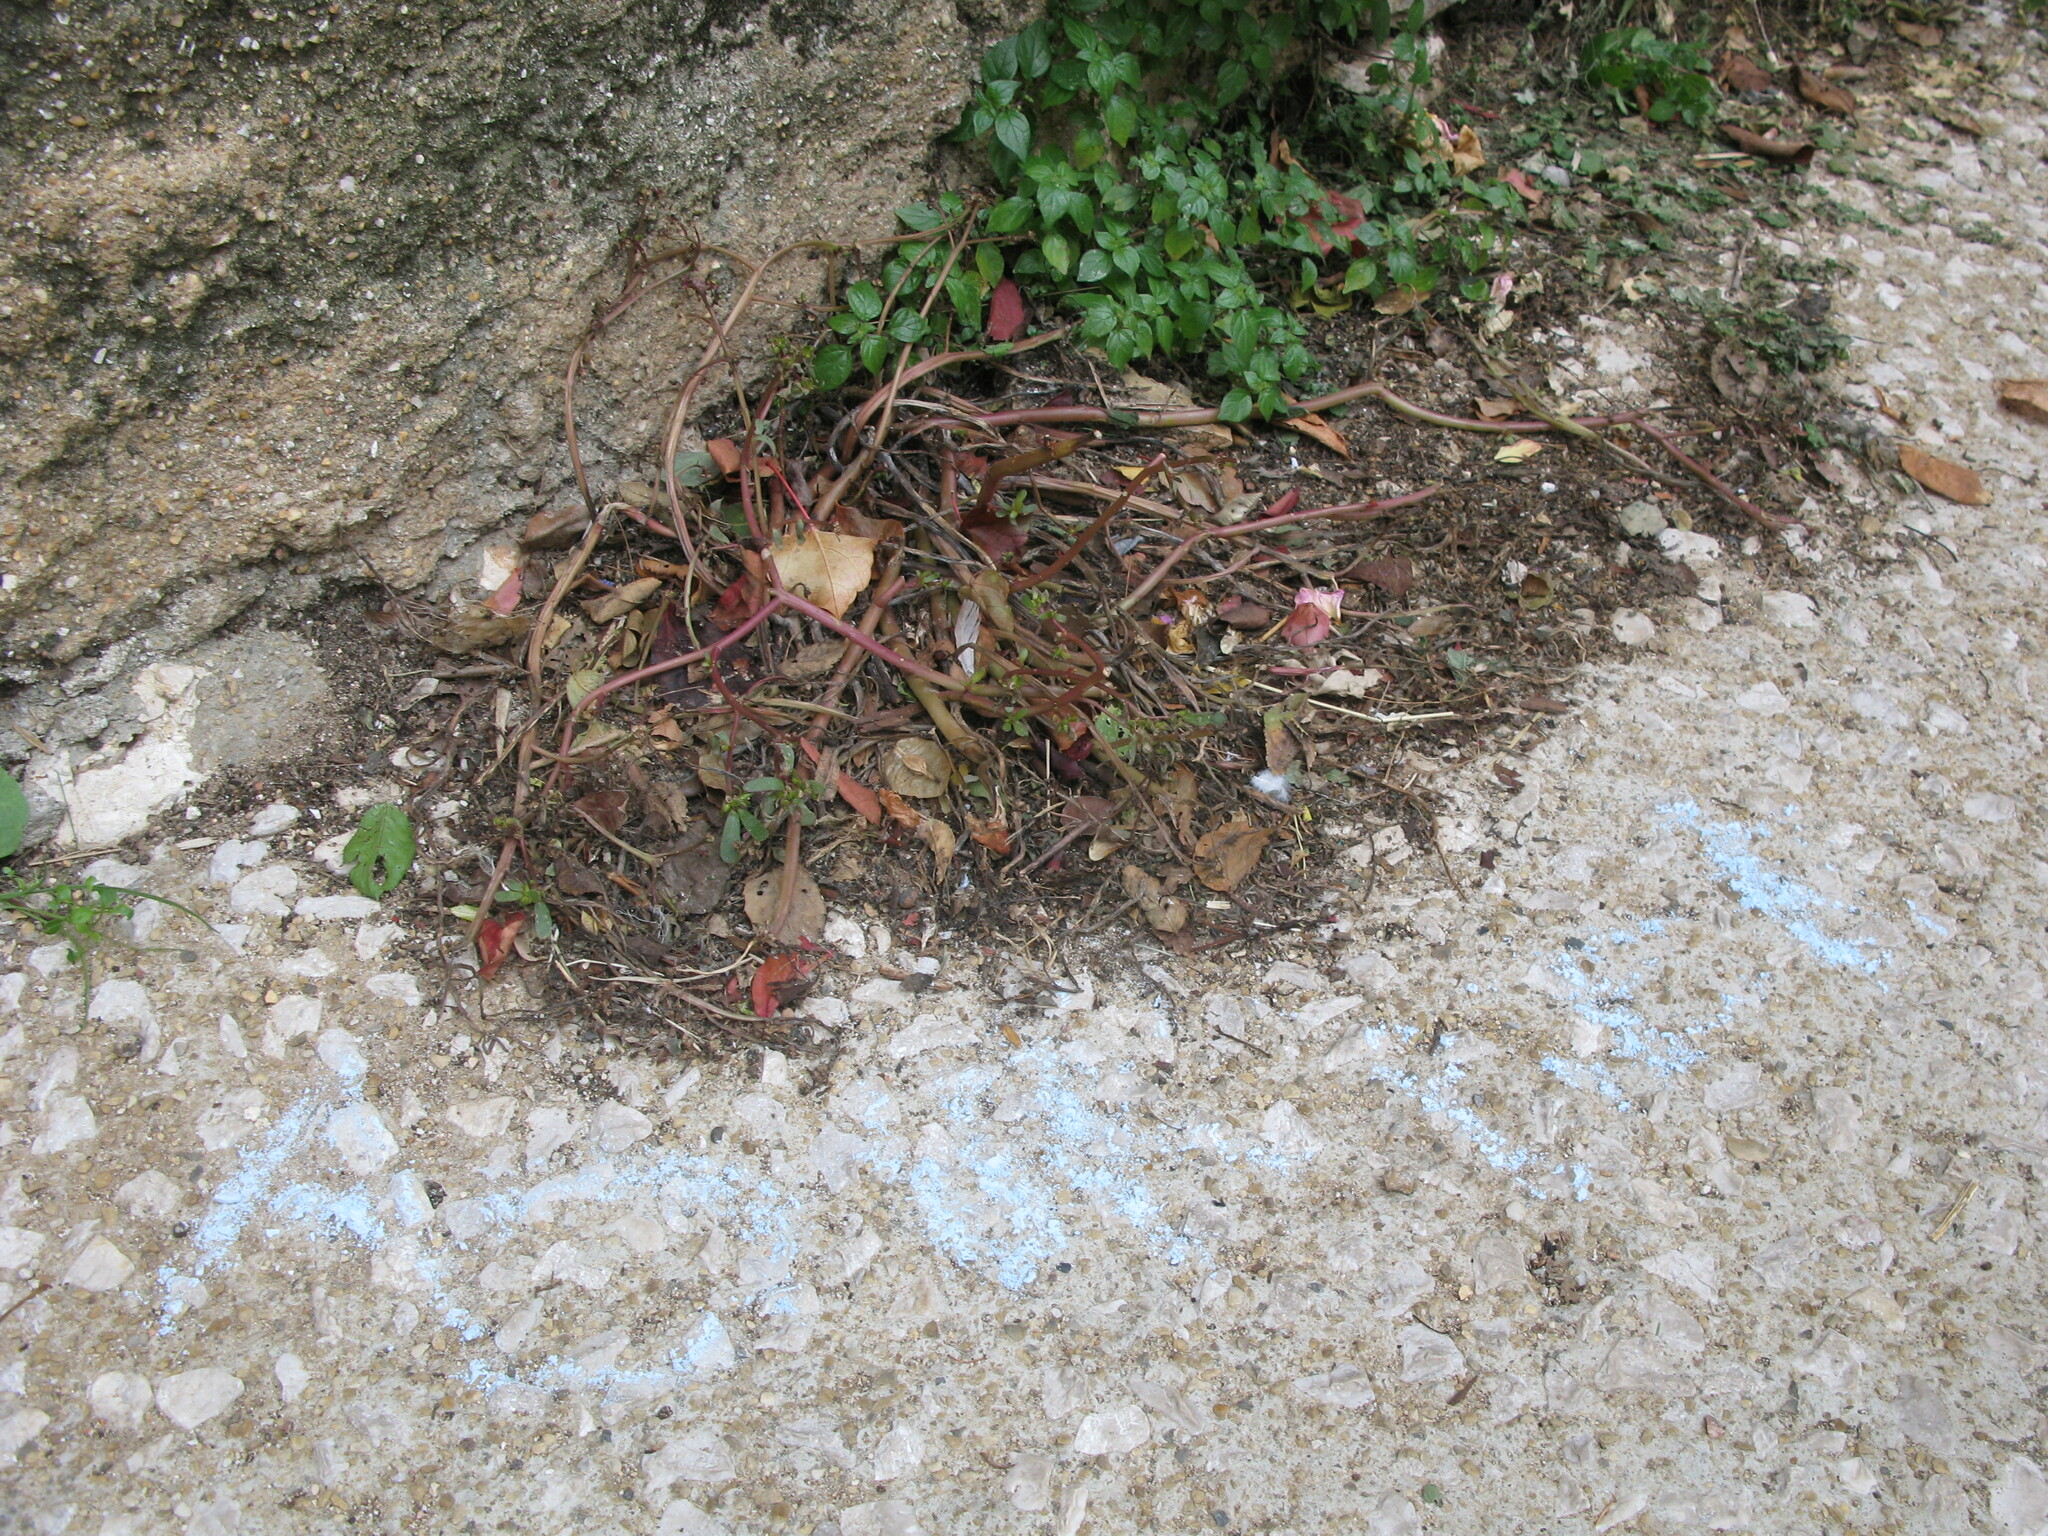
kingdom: Plantae
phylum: Tracheophyta
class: Magnoliopsida
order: Caryophyllales
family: Portulacaceae
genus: Portulaca
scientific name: Portulaca oleracea
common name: Common purslane
